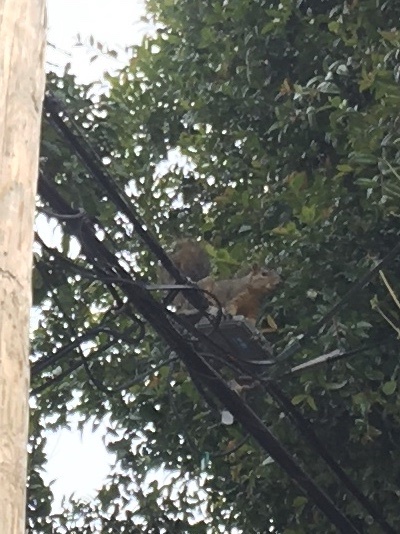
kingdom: Animalia
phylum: Chordata
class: Mammalia
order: Rodentia
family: Sciuridae
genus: Sciurus
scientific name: Sciurus niger
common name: Fox squirrel
